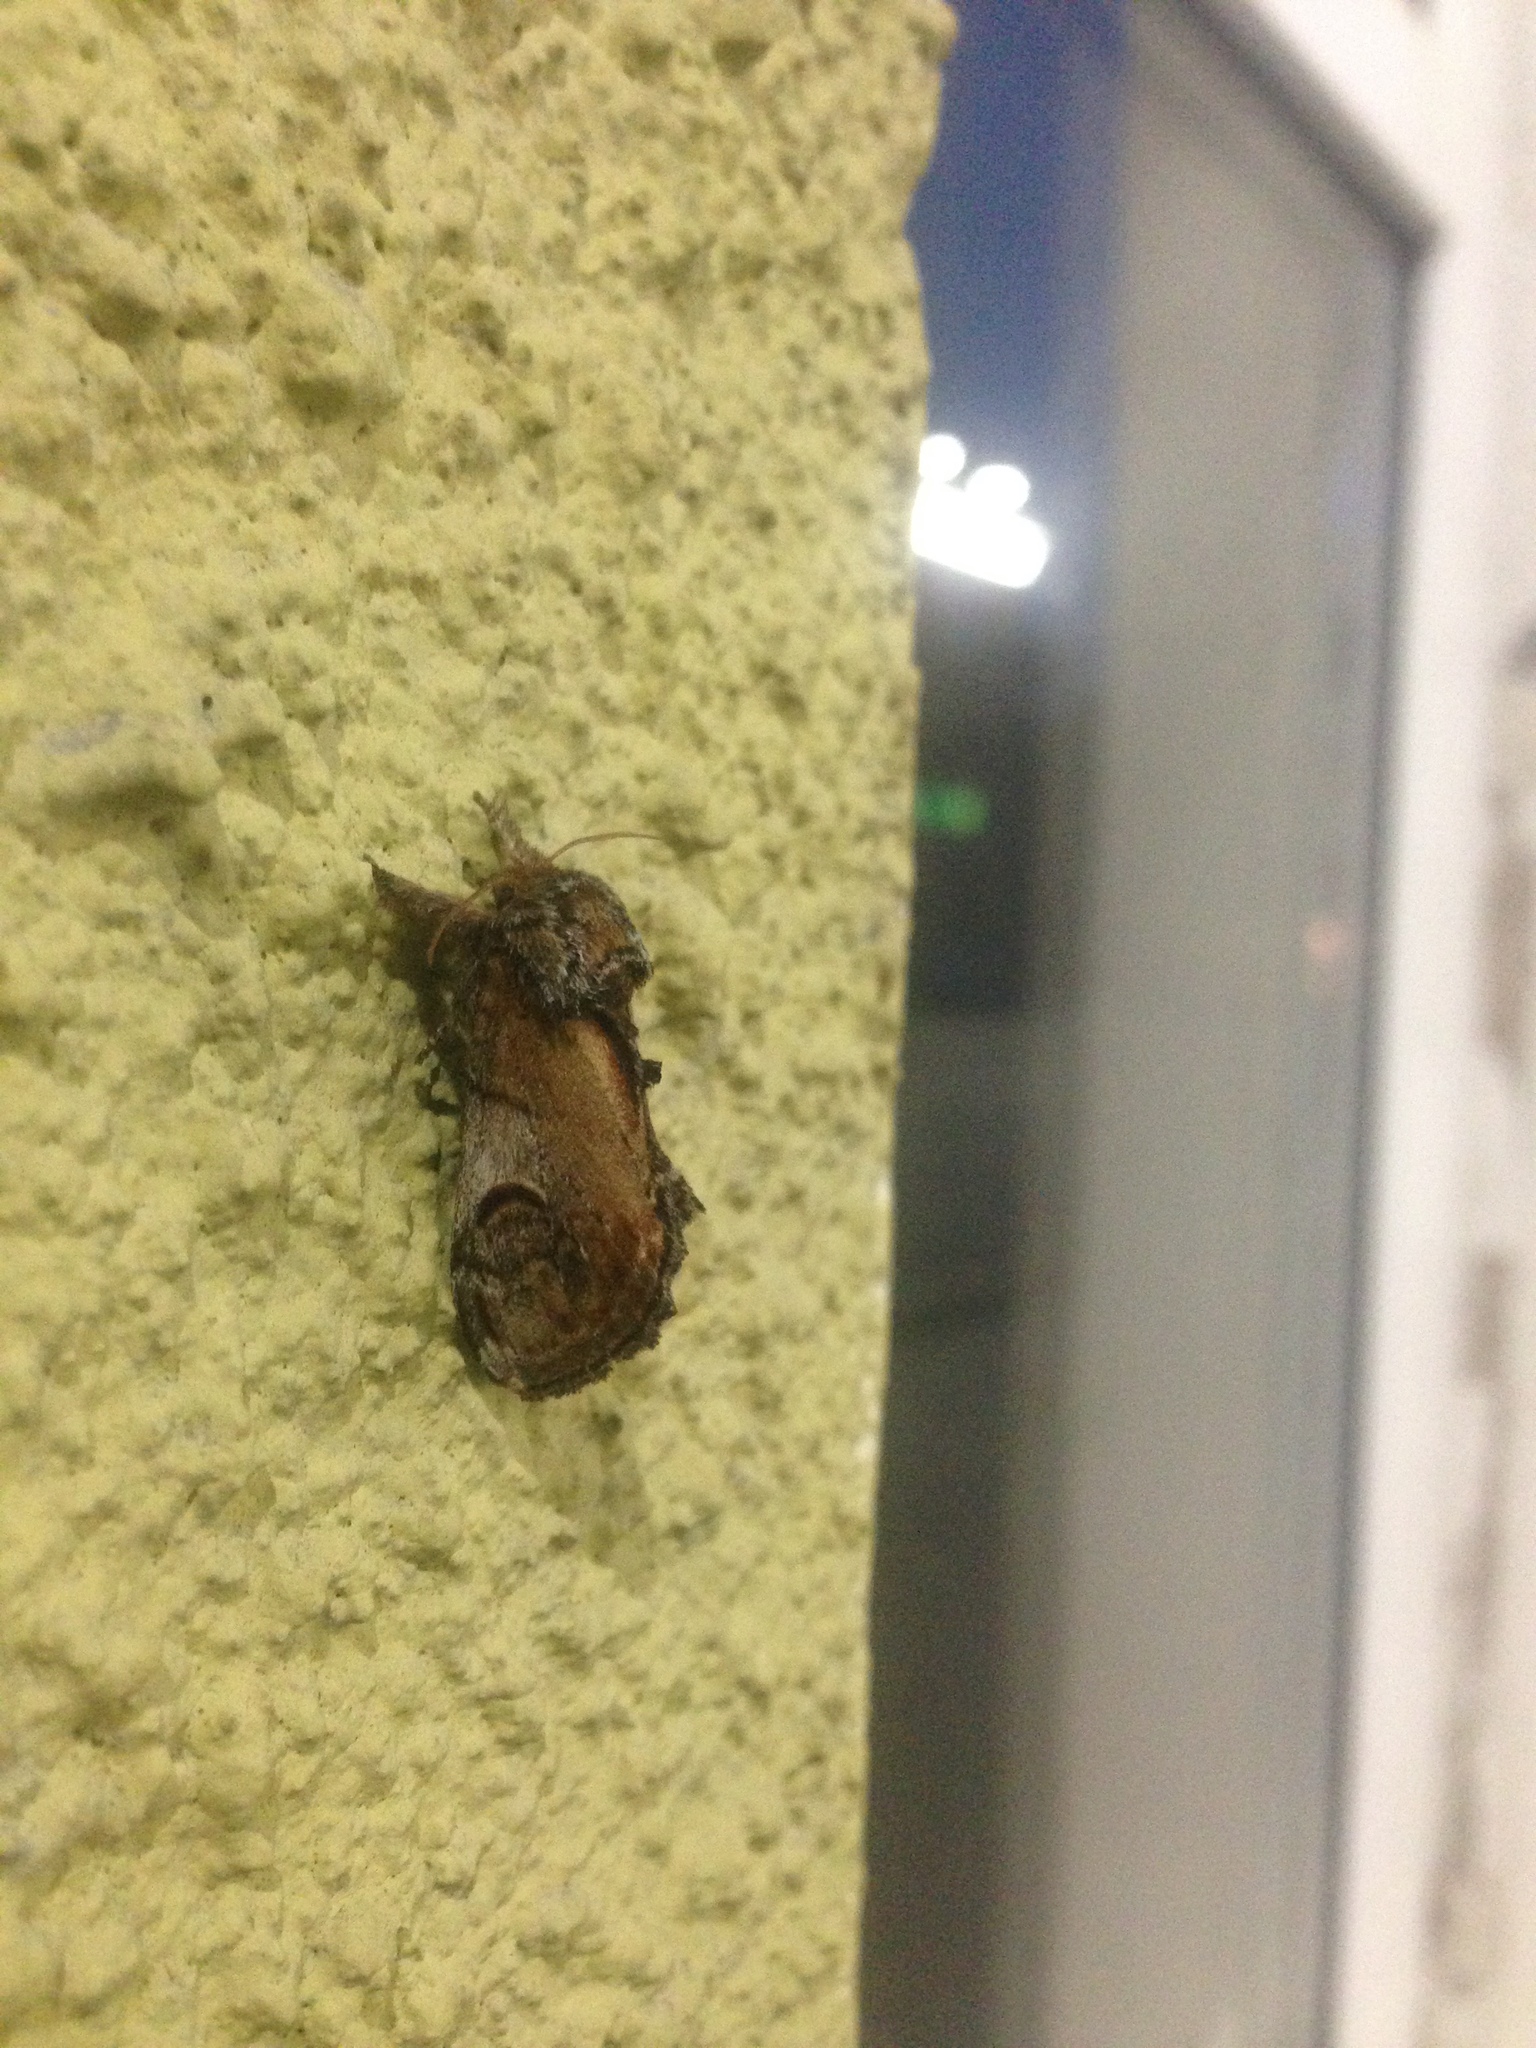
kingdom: Animalia
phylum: Arthropoda
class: Insecta
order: Lepidoptera
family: Notodontidae
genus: Notodonta
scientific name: Notodonta ziczac
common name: Pebble prominent
